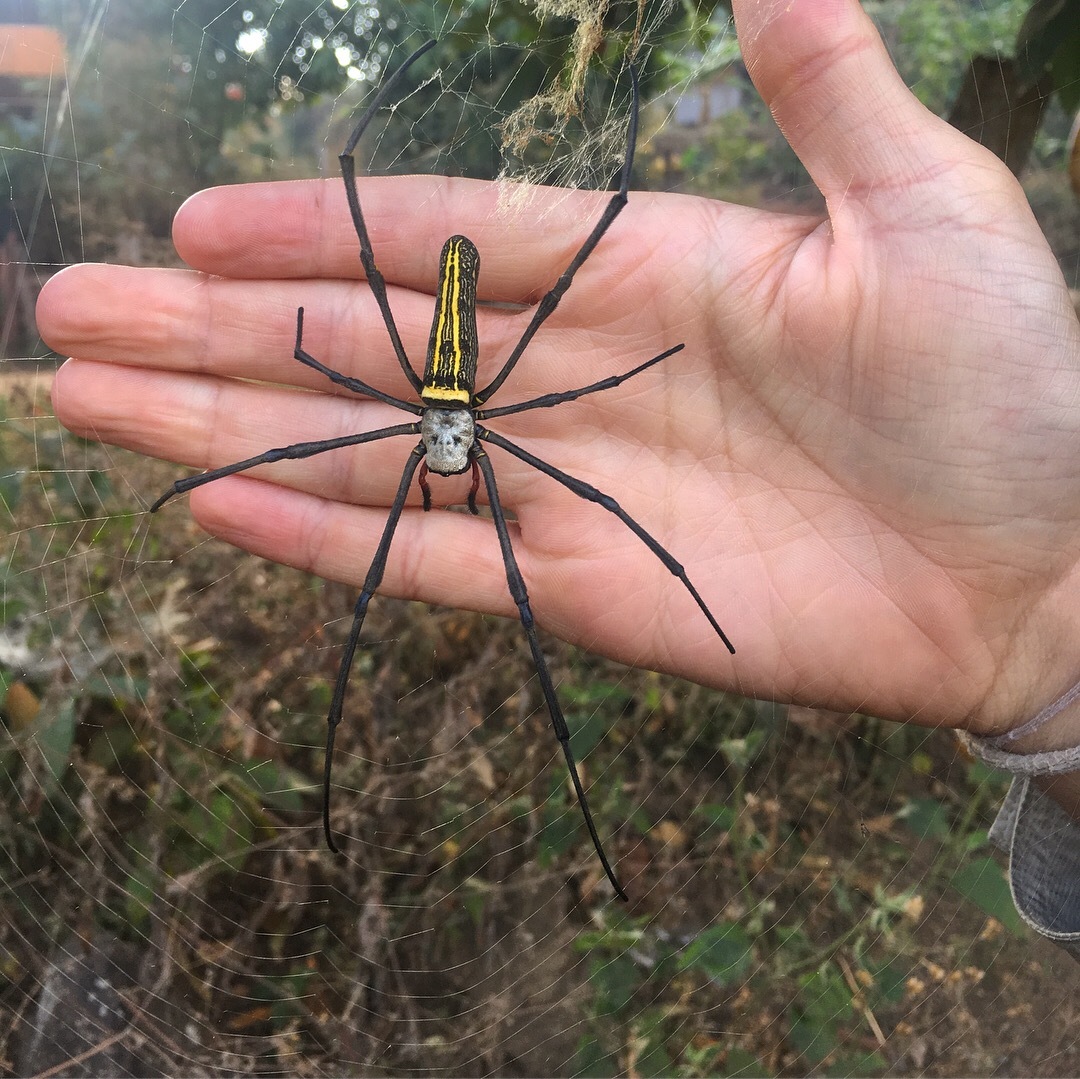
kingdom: Animalia
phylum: Arthropoda
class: Arachnida
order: Araneae
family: Araneidae
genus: Nephila
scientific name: Nephila pilipes
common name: Giant golden orb weaver
